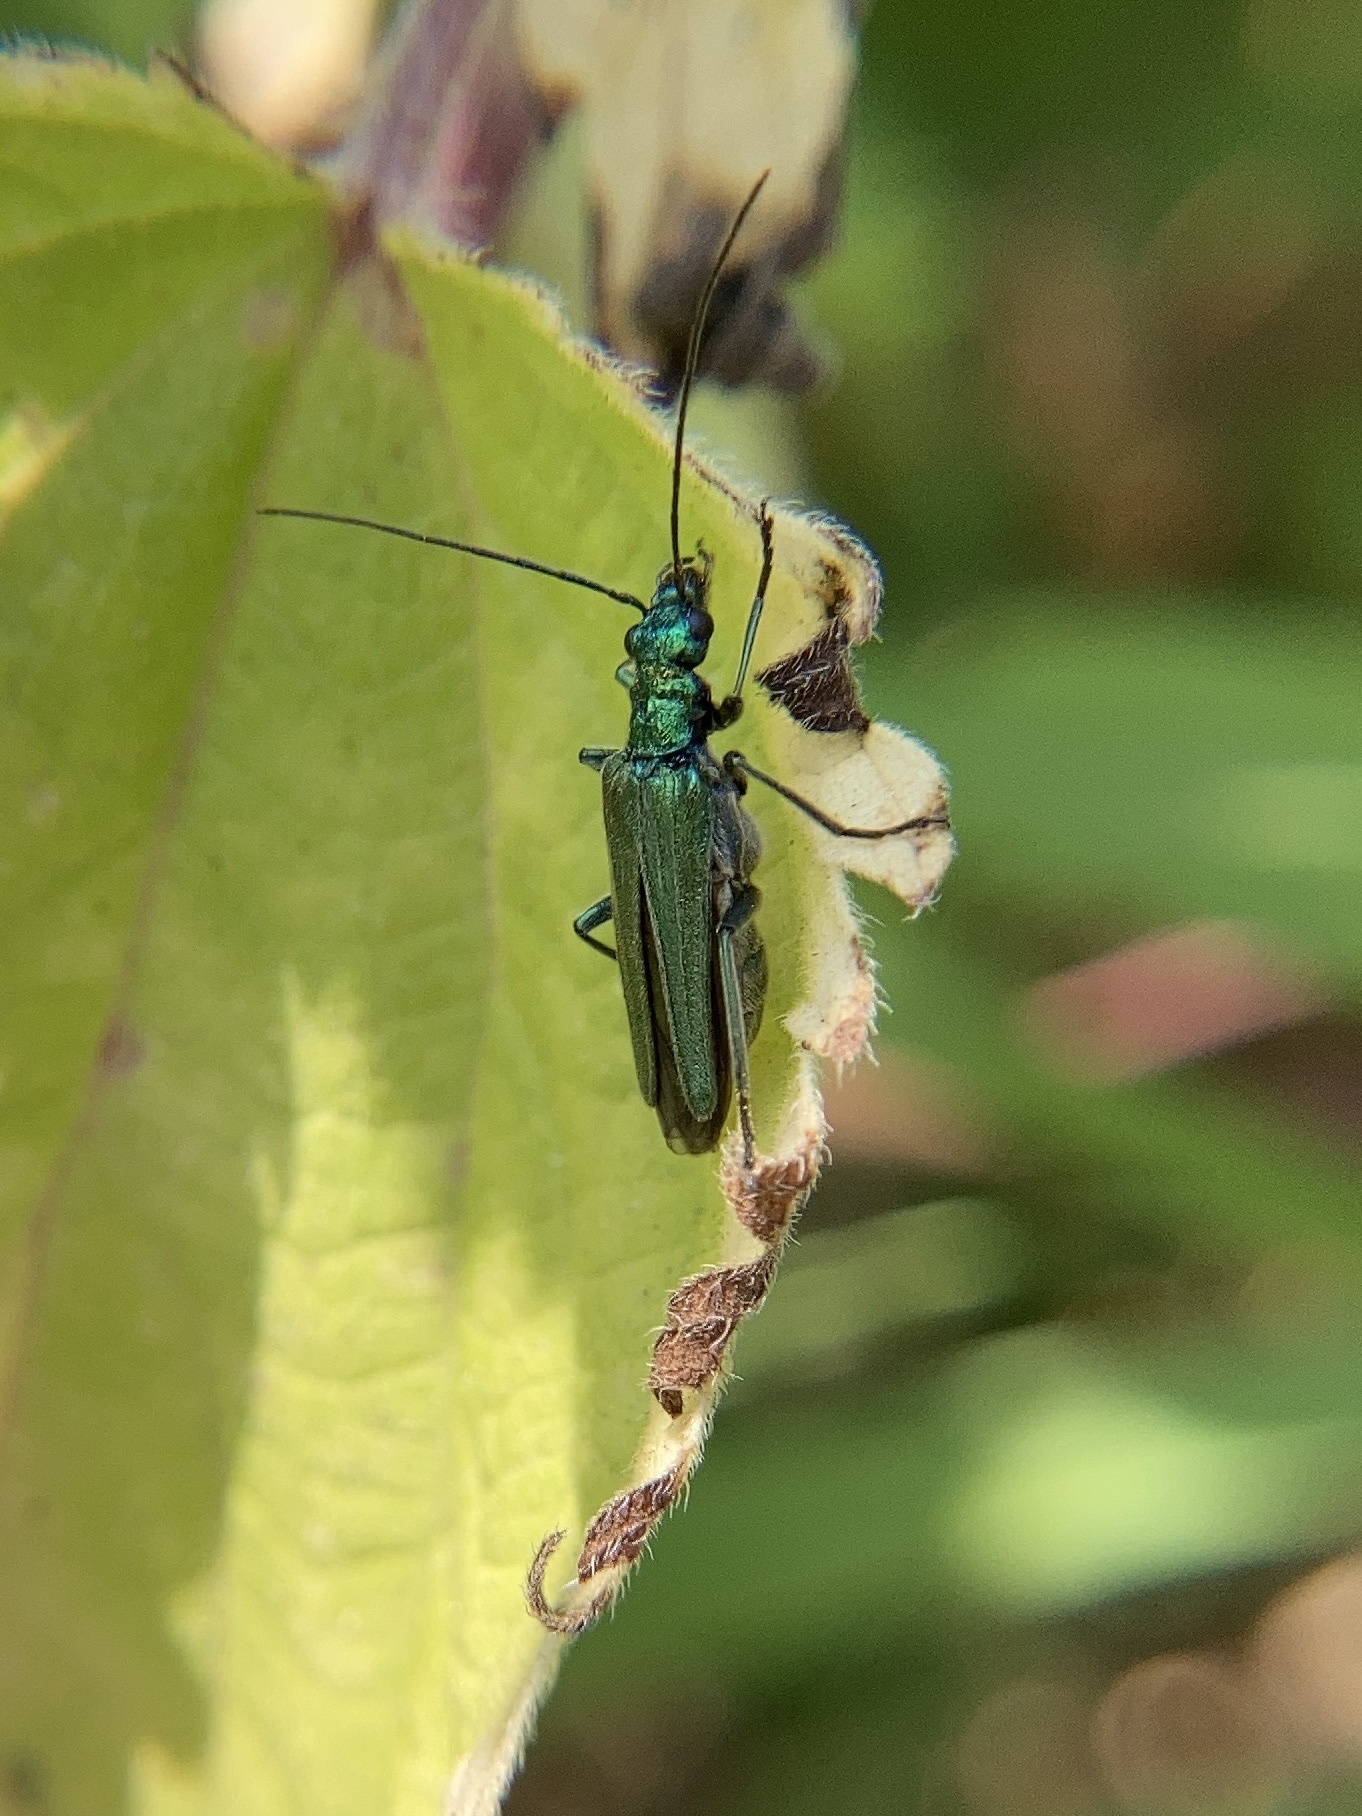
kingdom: Animalia
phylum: Arthropoda
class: Insecta
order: Coleoptera
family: Oedemeridae
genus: Oedemera
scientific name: Oedemera nobilis
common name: Swollen-thighed beetle
